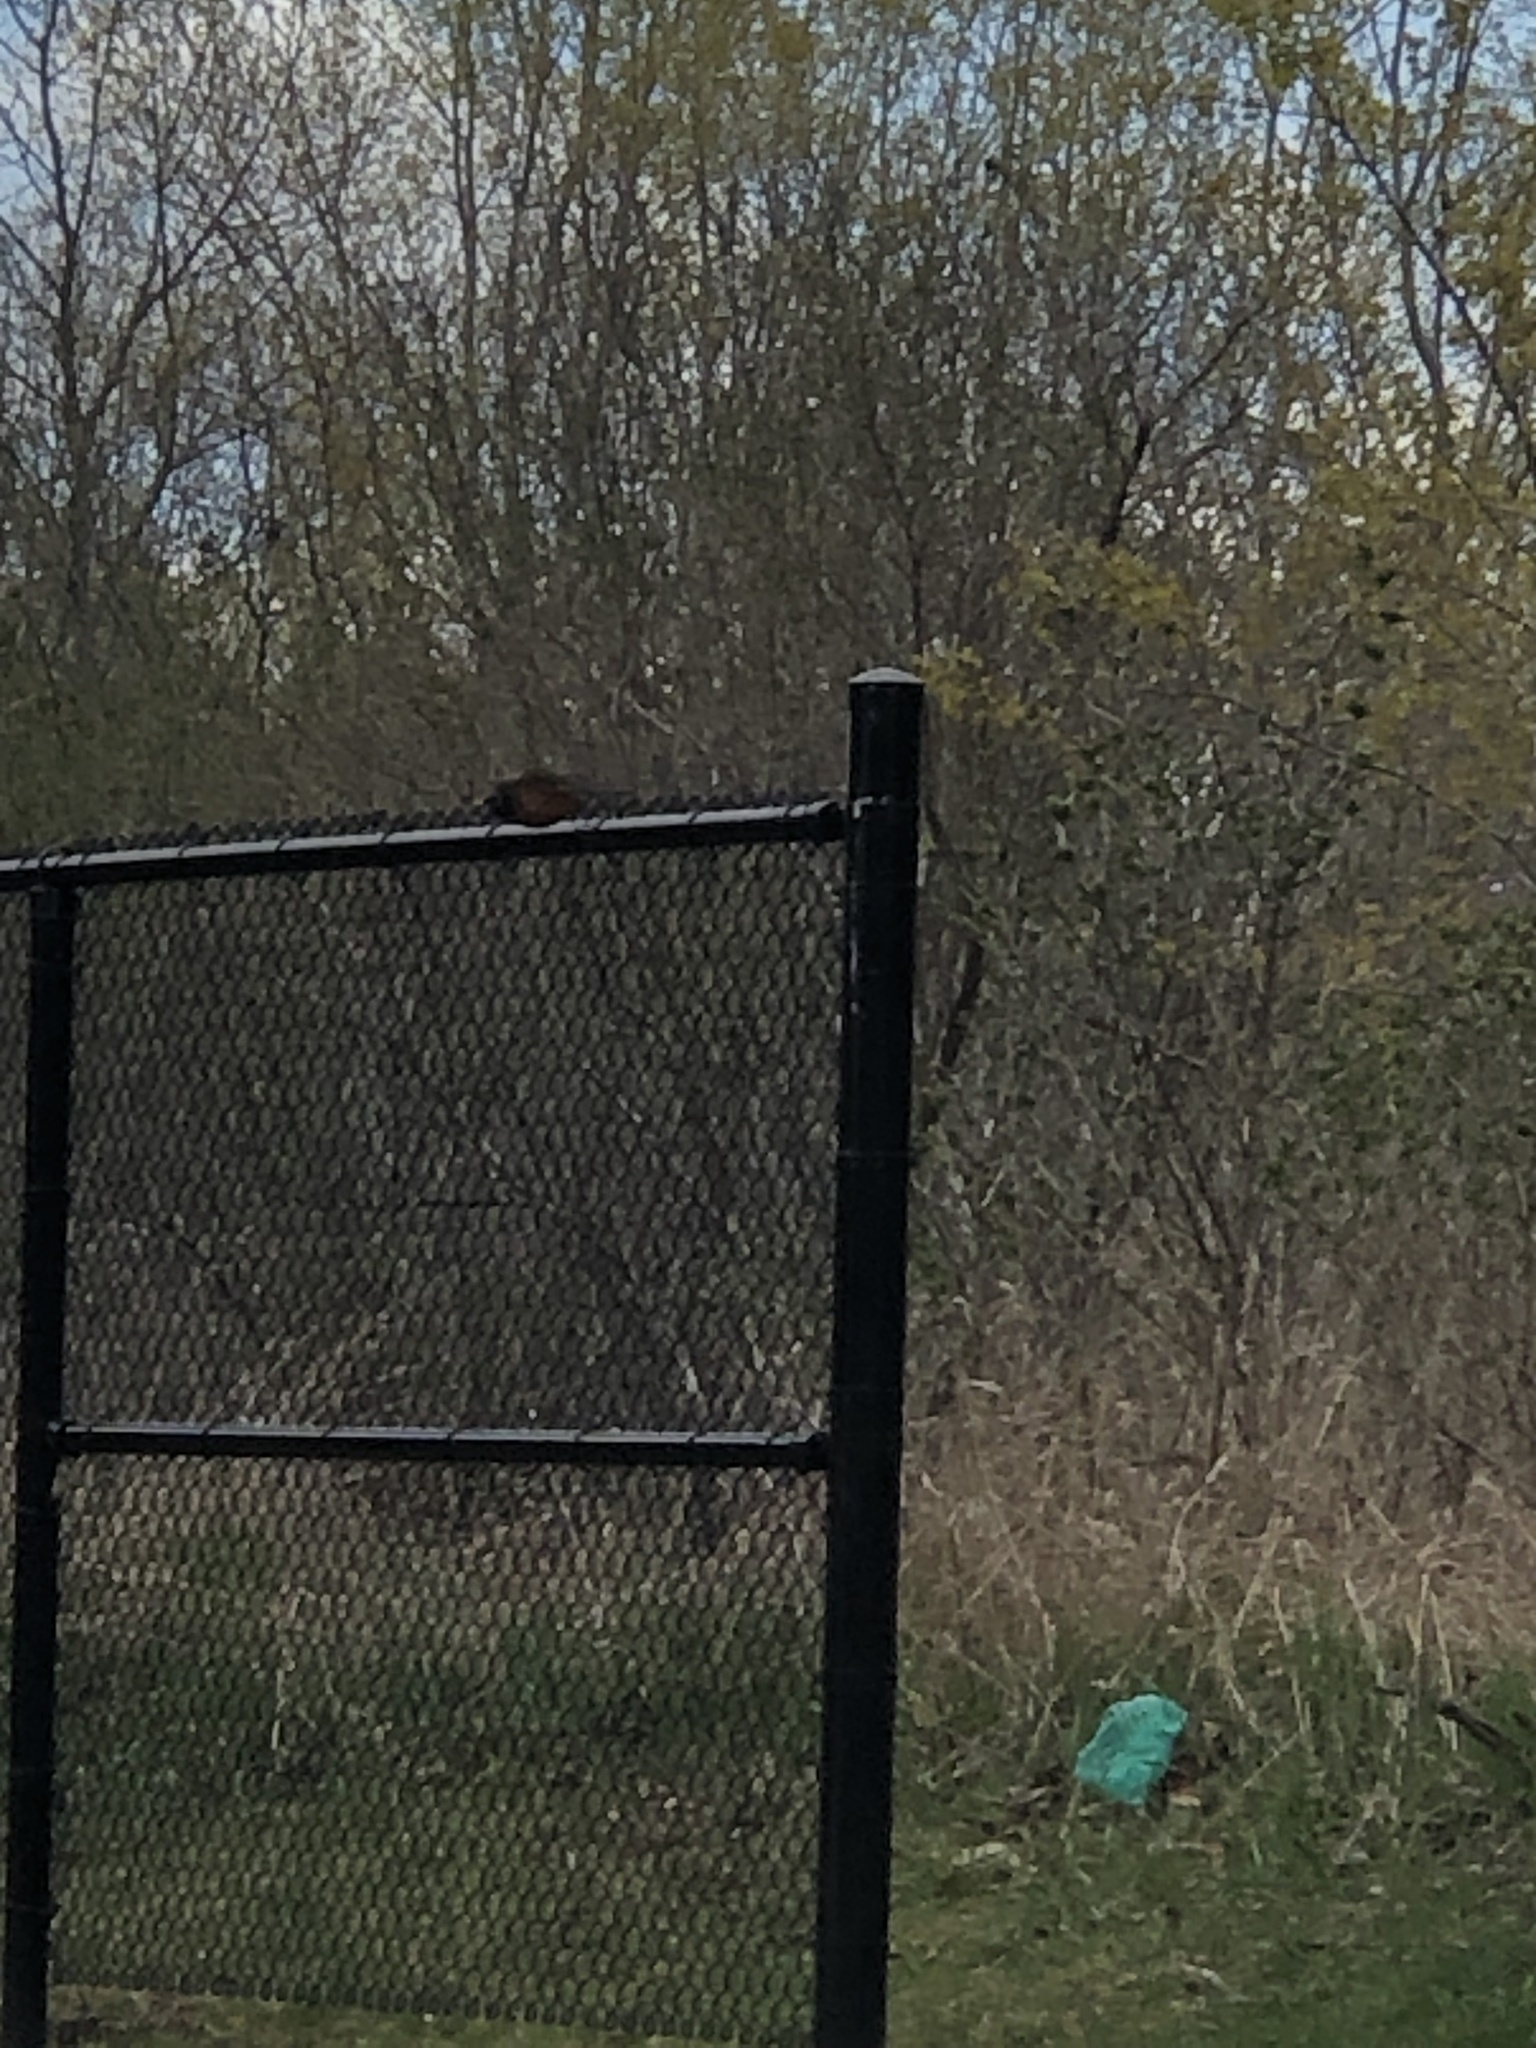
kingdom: Animalia
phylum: Chordata
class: Aves
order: Passeriformes
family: Turdidae
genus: Turdus
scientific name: Turdus migratorius
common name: American robin
